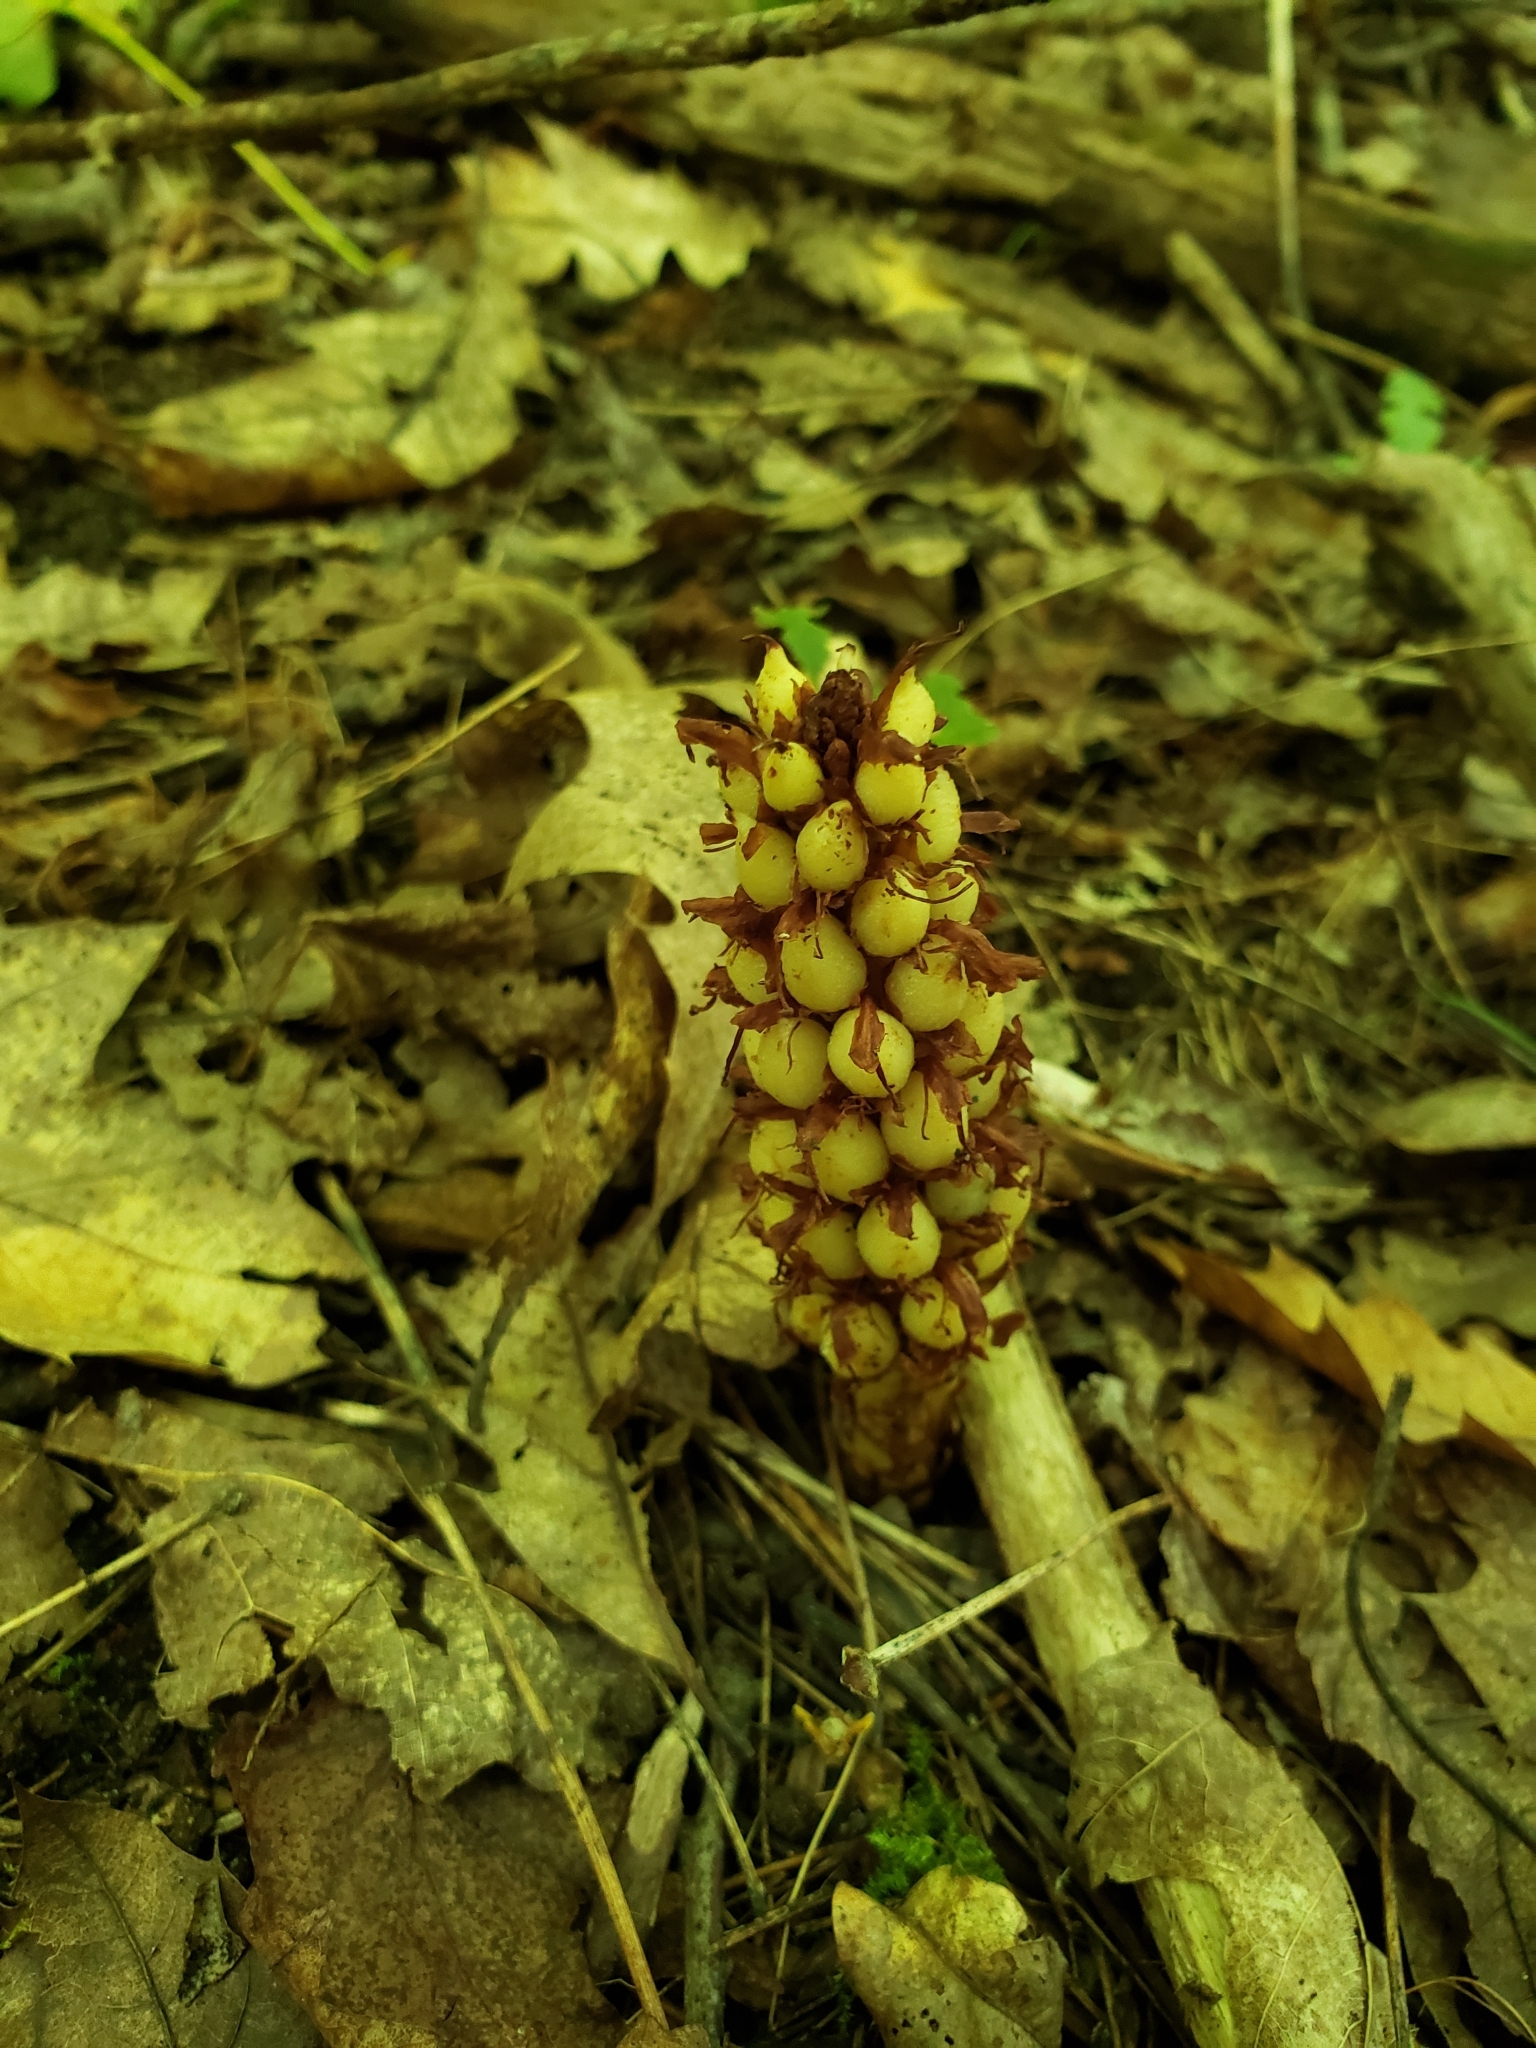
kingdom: Plantae
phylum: Tracheophyta
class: Magnoliopsida
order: Lamiales
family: Orobanchaceae
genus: Conopholis
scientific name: Conopholis americana
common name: American cancer-root
